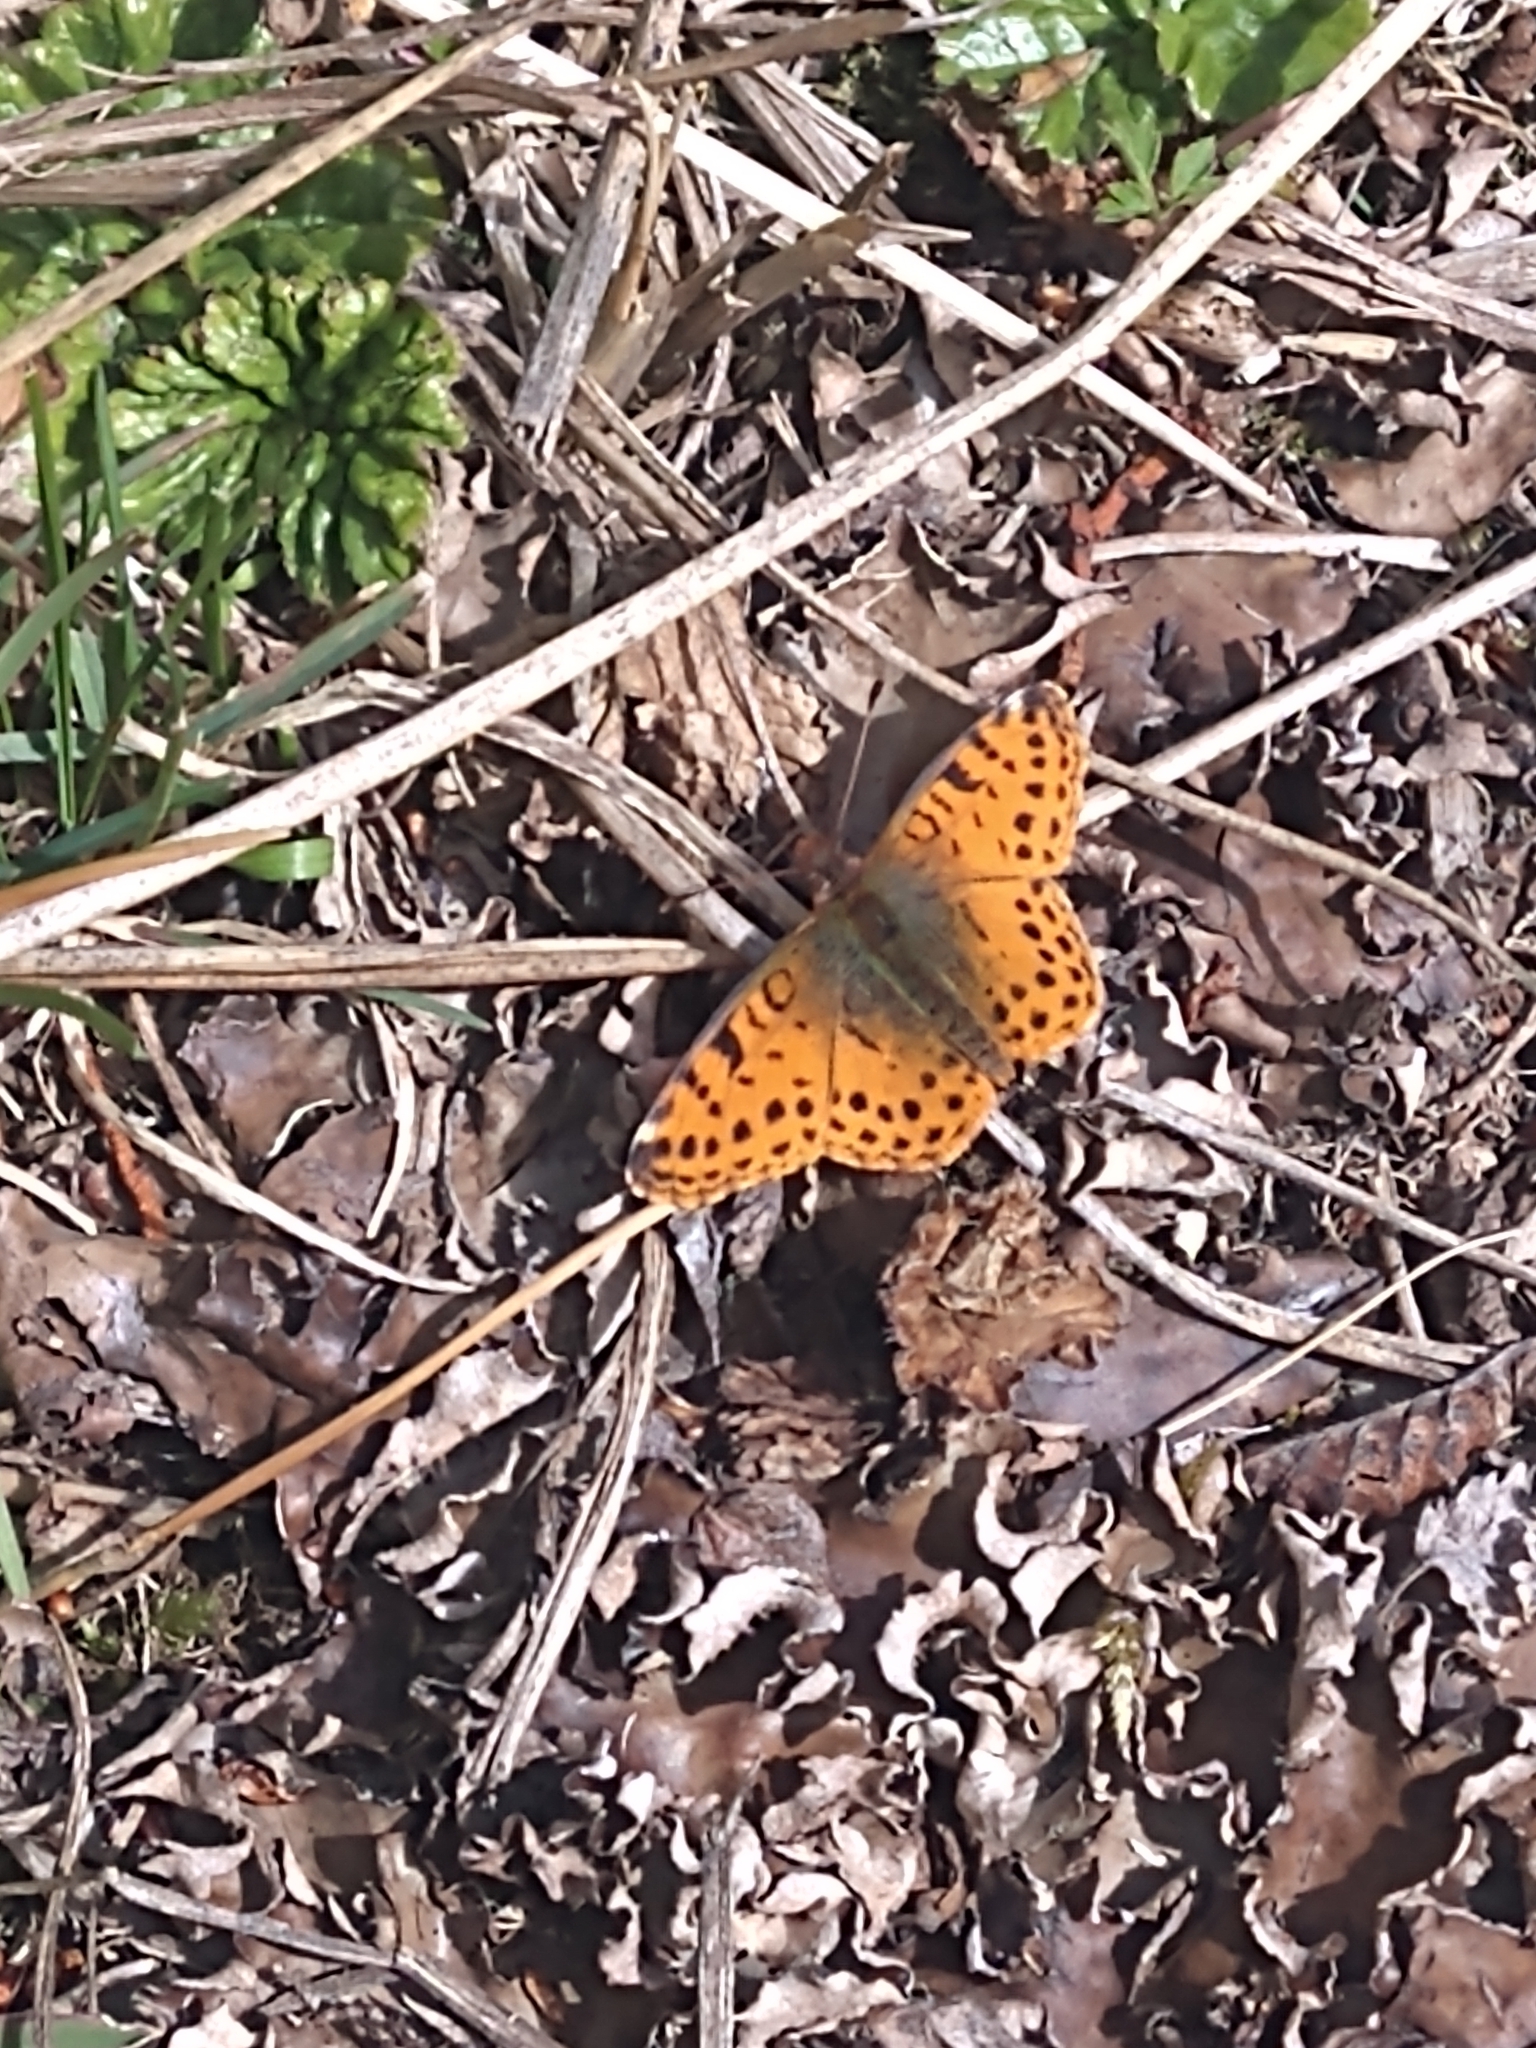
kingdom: Animalia
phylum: Arthropoda
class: Insecta
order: Lepidoptera
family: Nymphalidae
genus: Issoria
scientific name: Issoria Yramea cytheris
